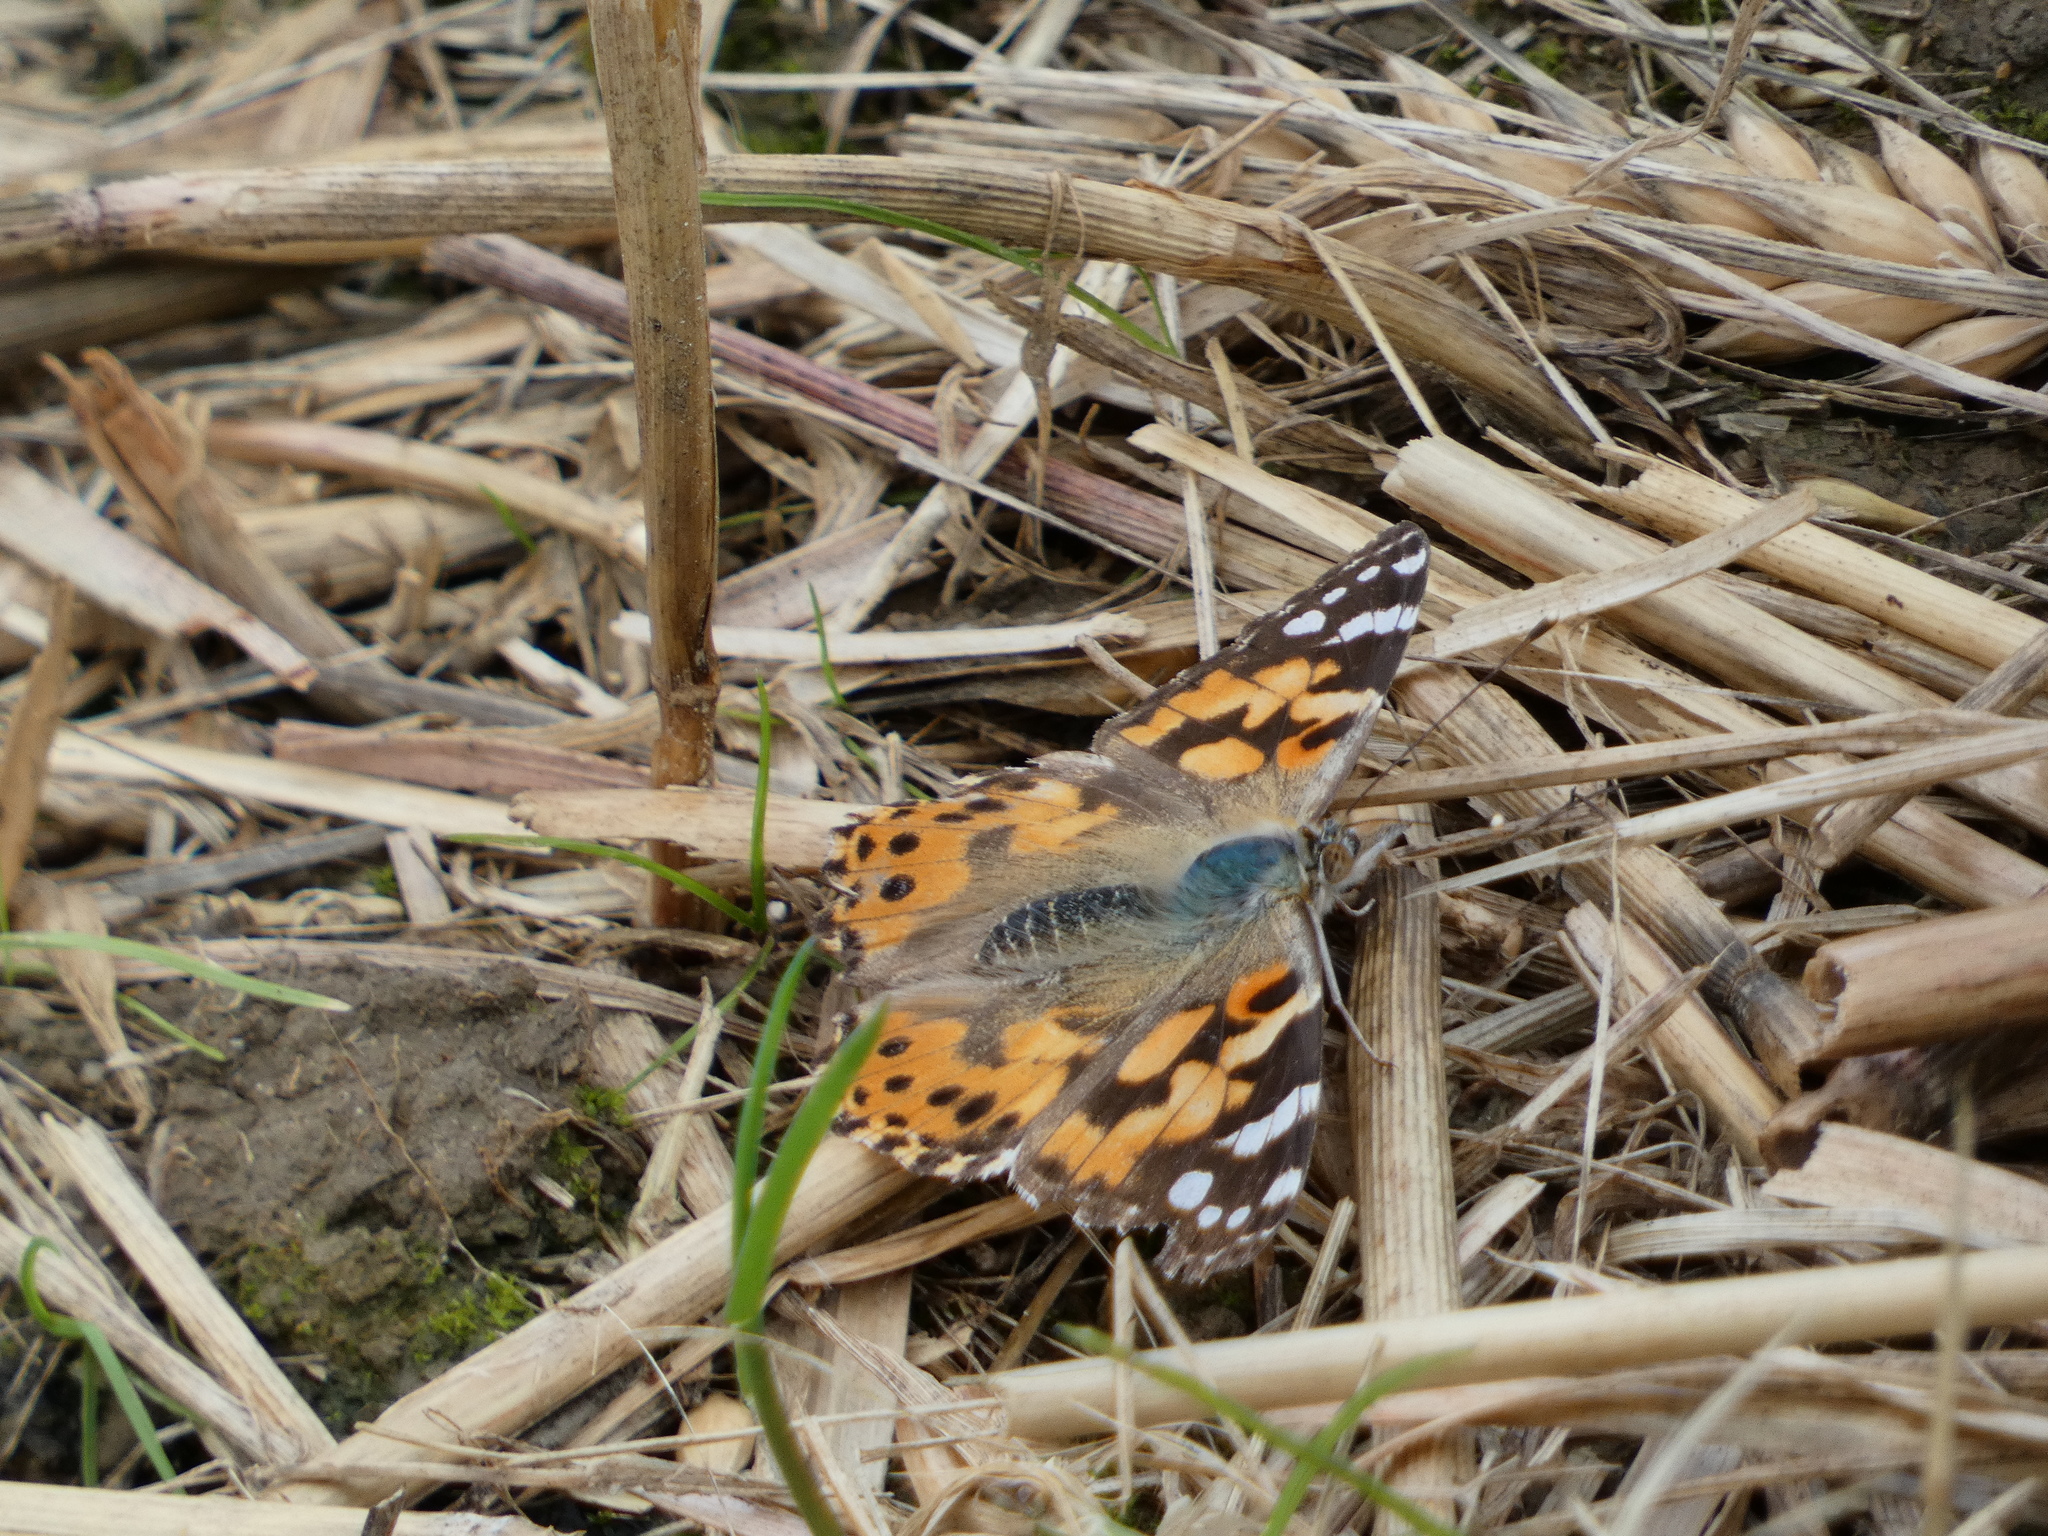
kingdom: Animalia
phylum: Arthropoda
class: Insecta
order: Lepidoptera
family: Nymphalidae
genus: Vanessa
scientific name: Vanessa cardui
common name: Painted lady
